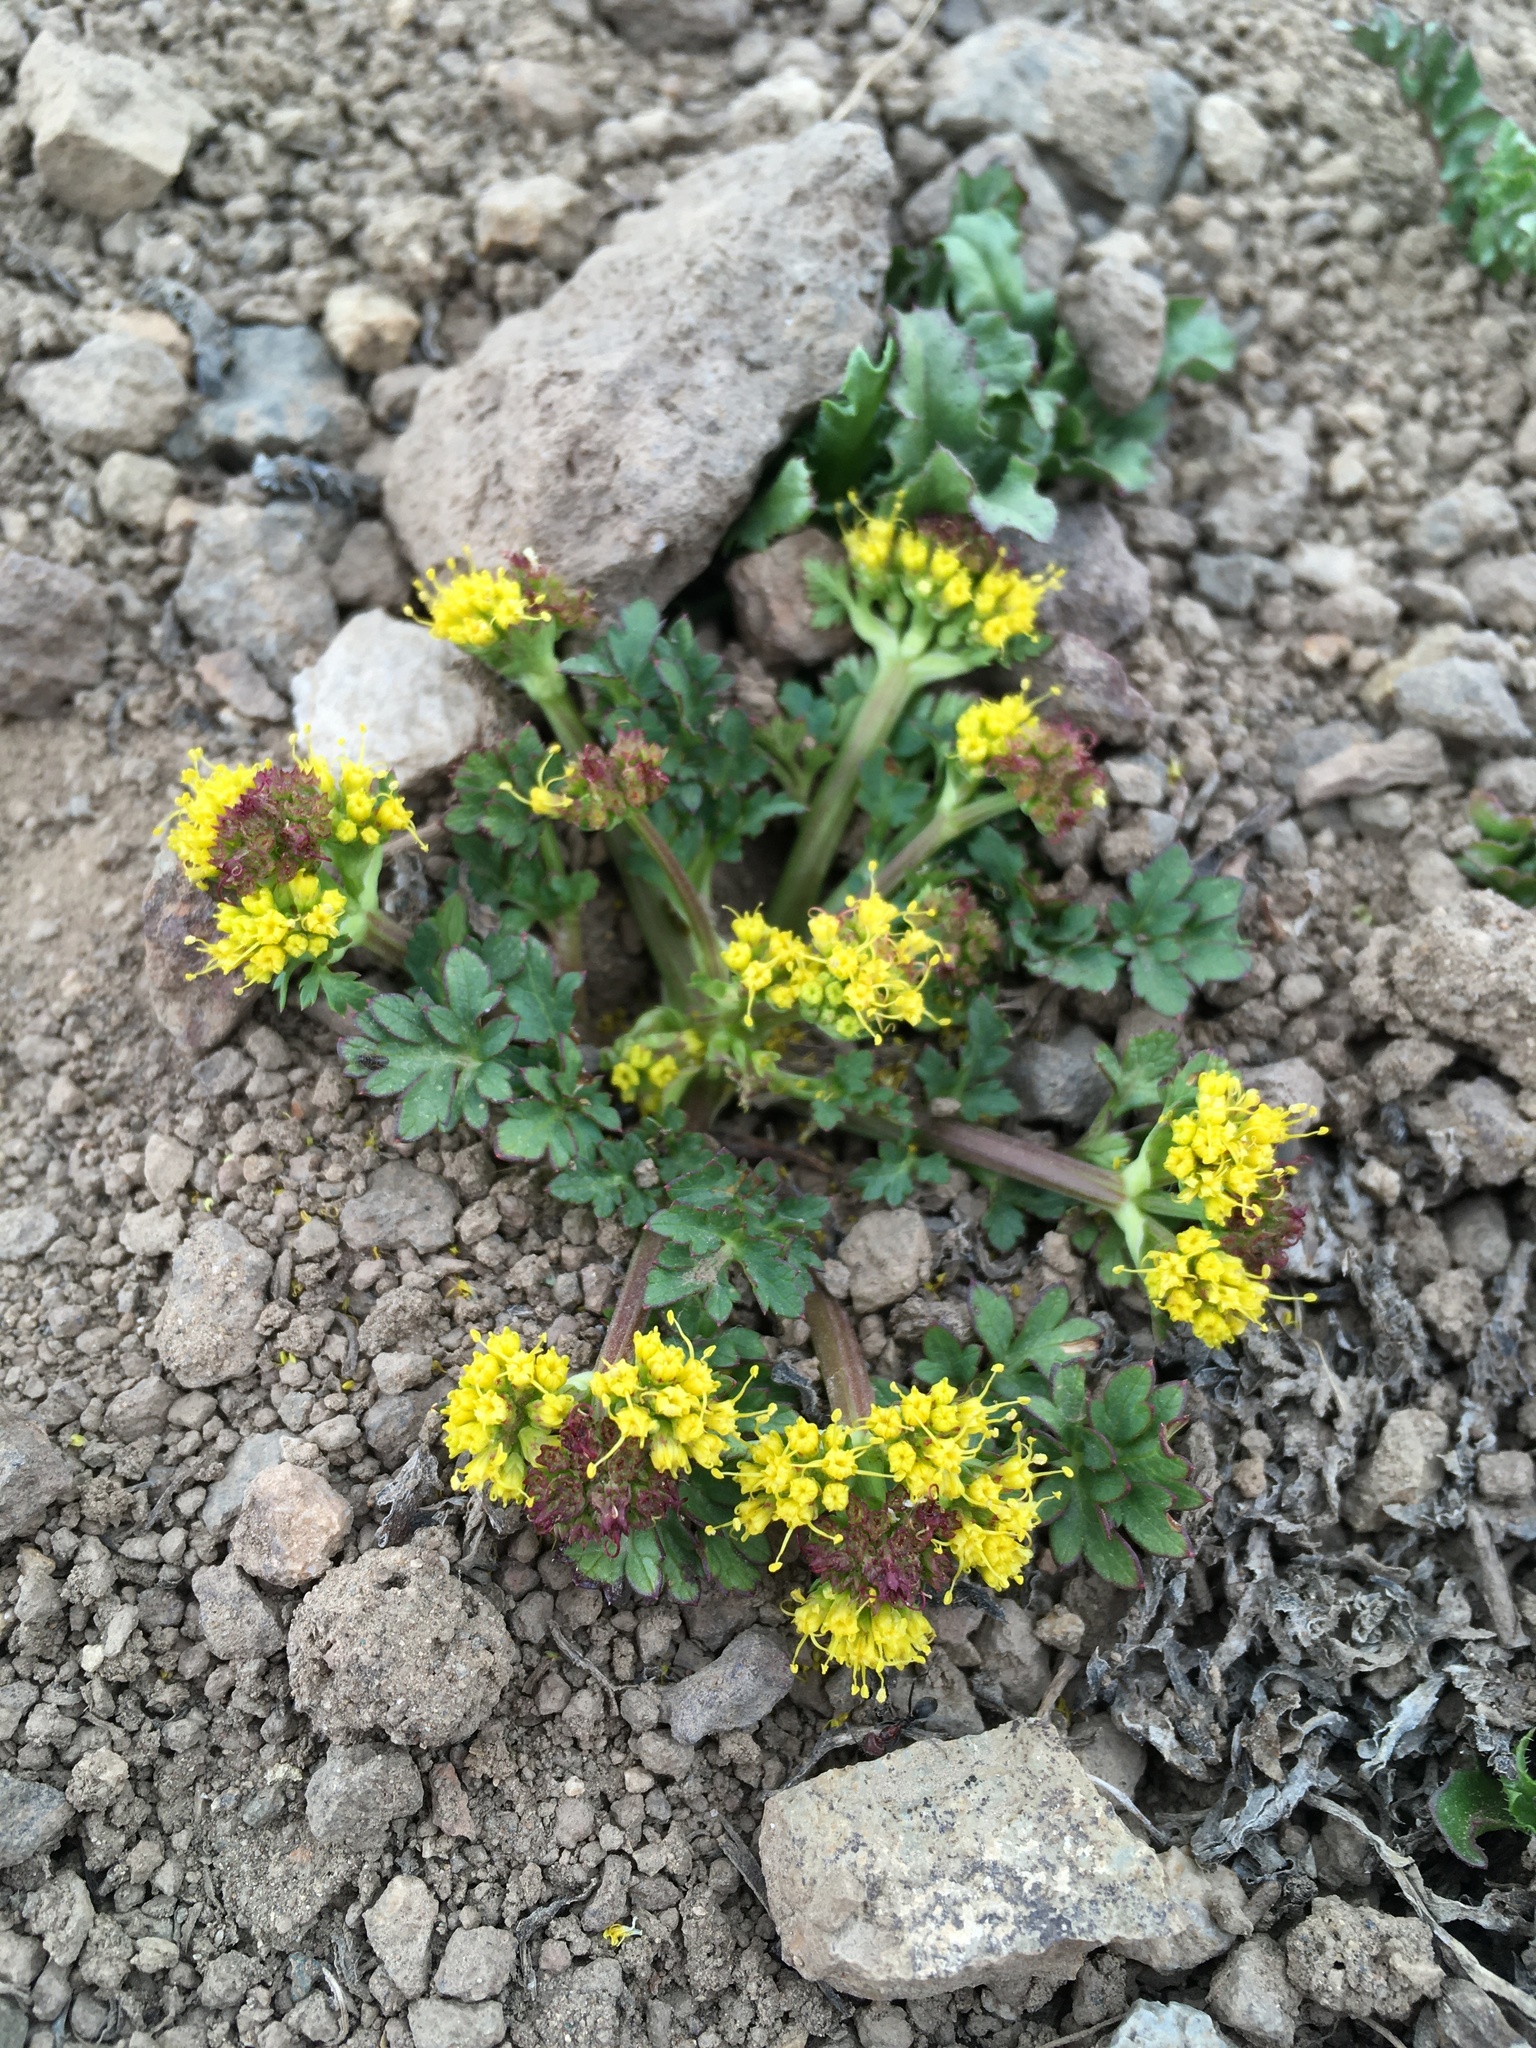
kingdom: Plantae
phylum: Tracheophyta
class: Magnoliopsida
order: Apiales
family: Apiaceae
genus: Sanicula
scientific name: Sanicula graveolens
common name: Sierra sanicle
